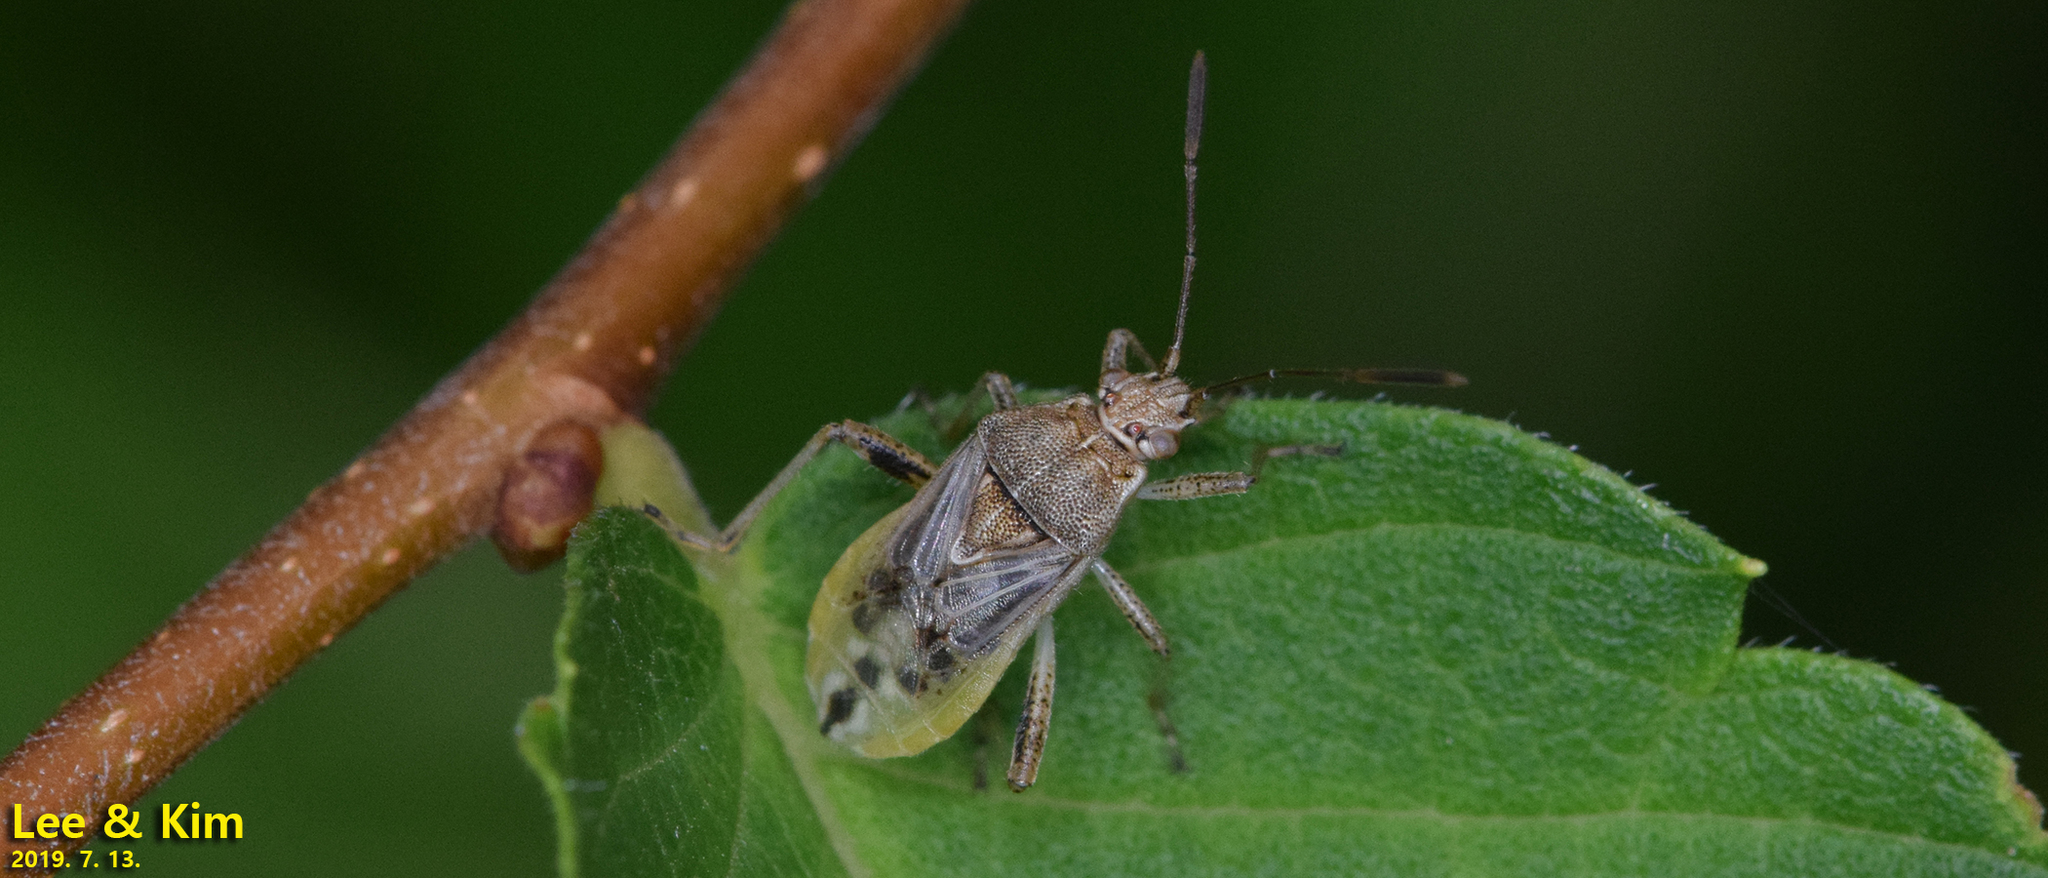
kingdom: Animalia
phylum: Arthropoda
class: Insecta
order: Hemiptera
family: Rhopalidae
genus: Stictopleurus
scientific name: Stictopleurus minutus
